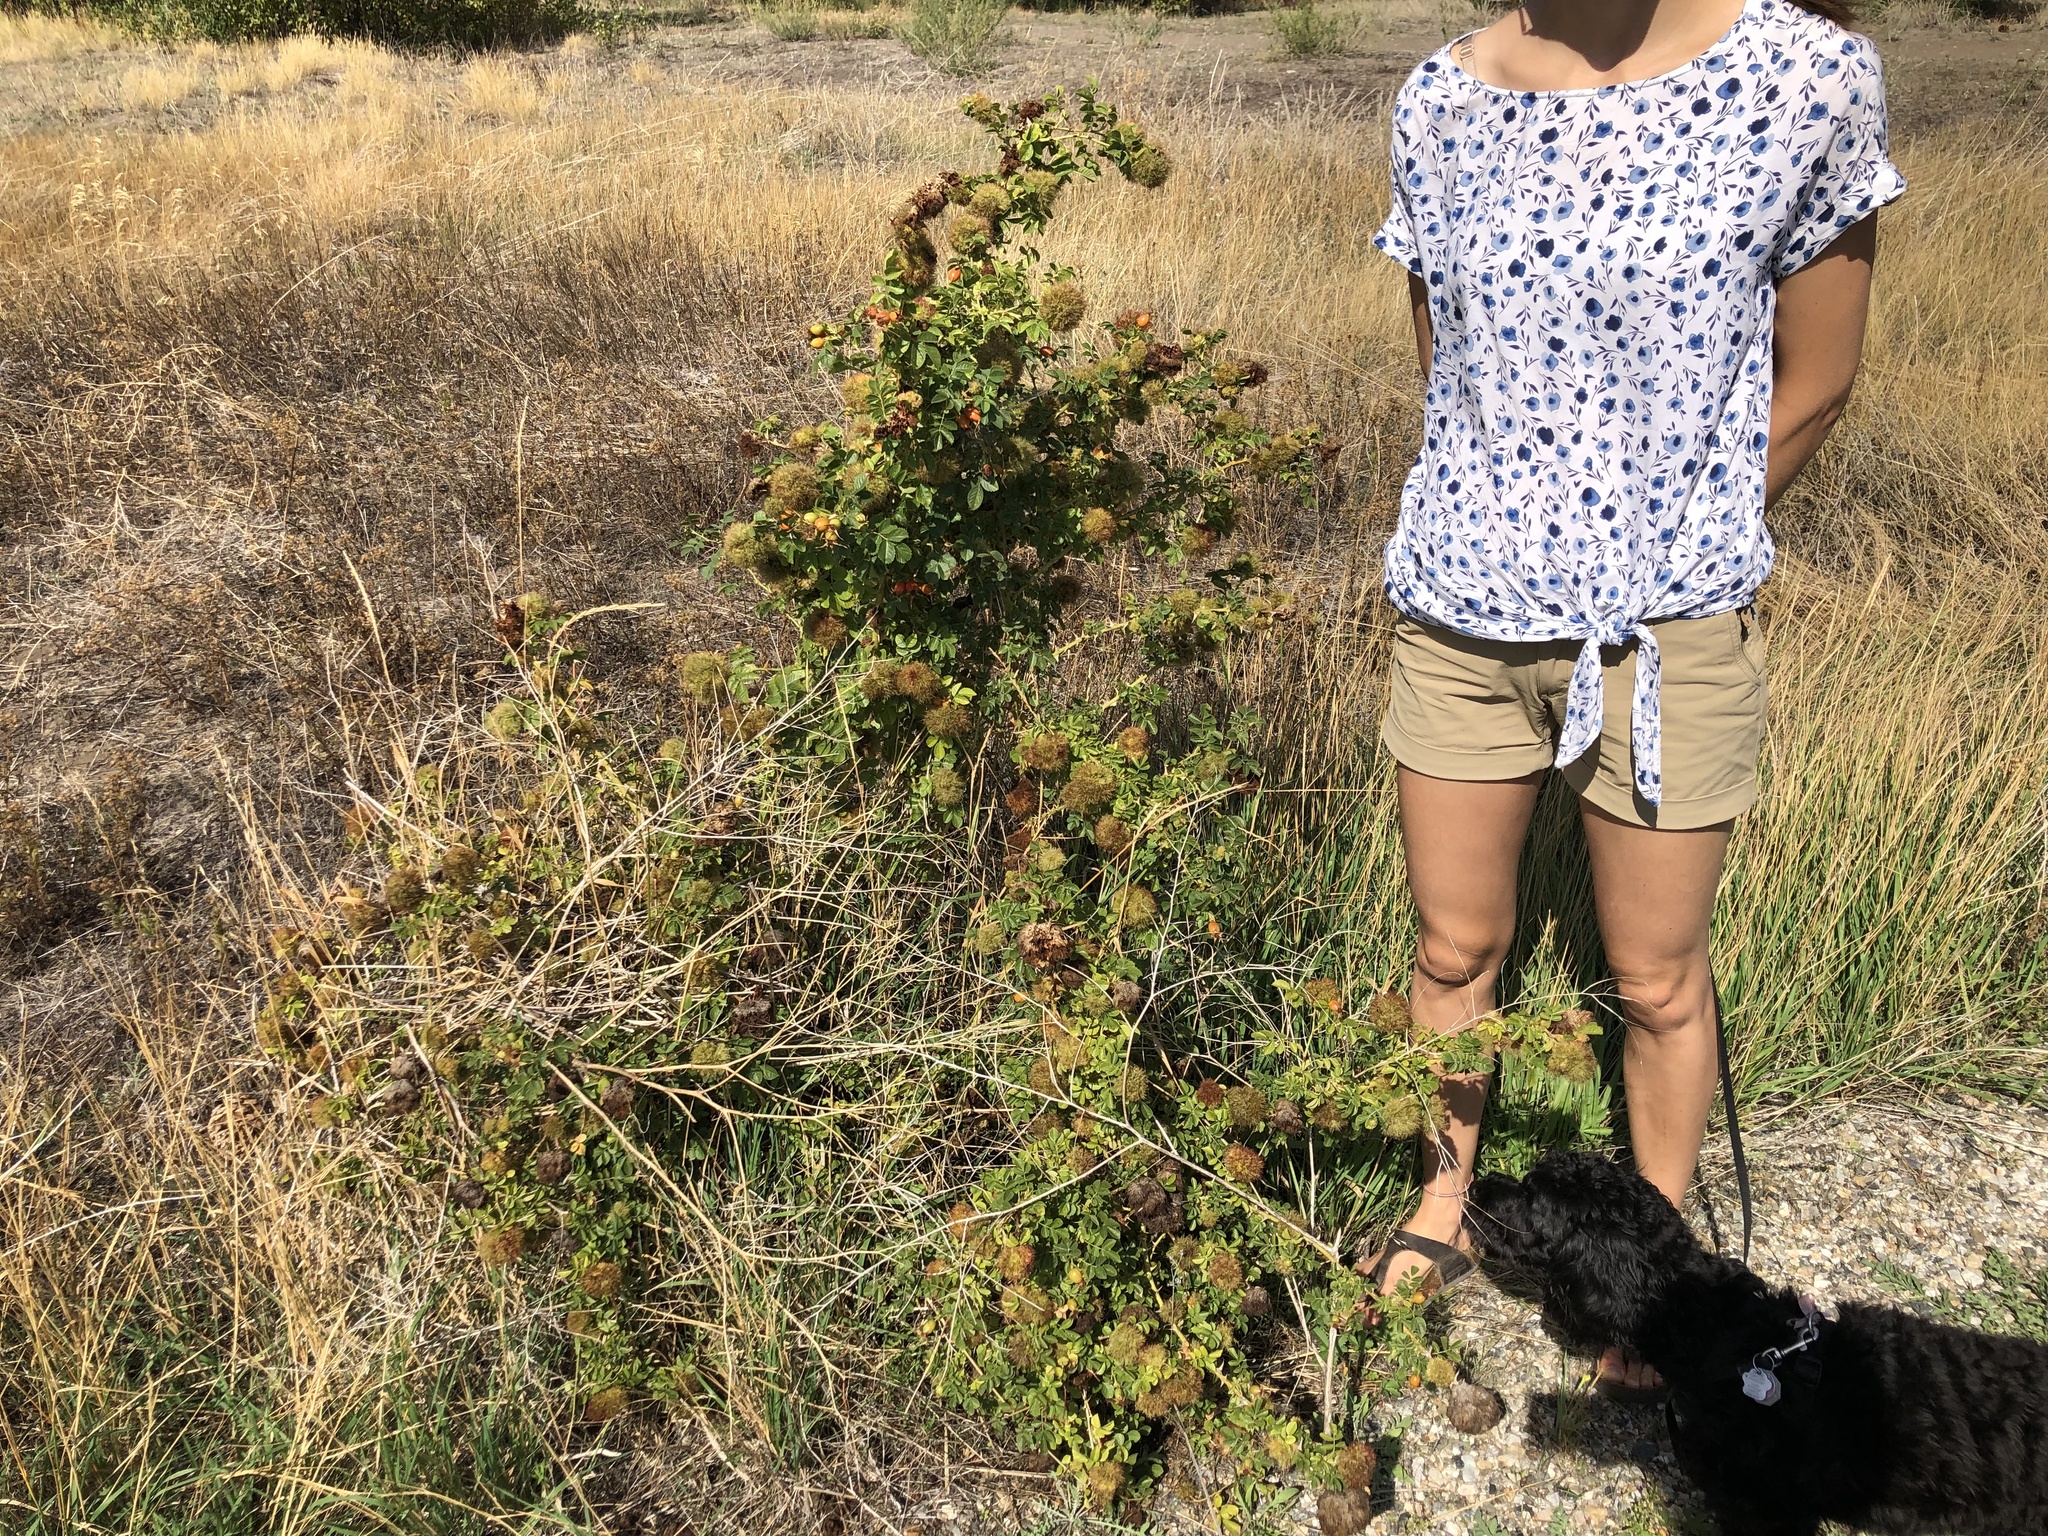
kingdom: Animalia
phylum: Arthropoda
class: Insecta
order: Hymenoptera
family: Cynipidae
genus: Diplolepis
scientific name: Diplolepis rosae
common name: Bedeguar gall
